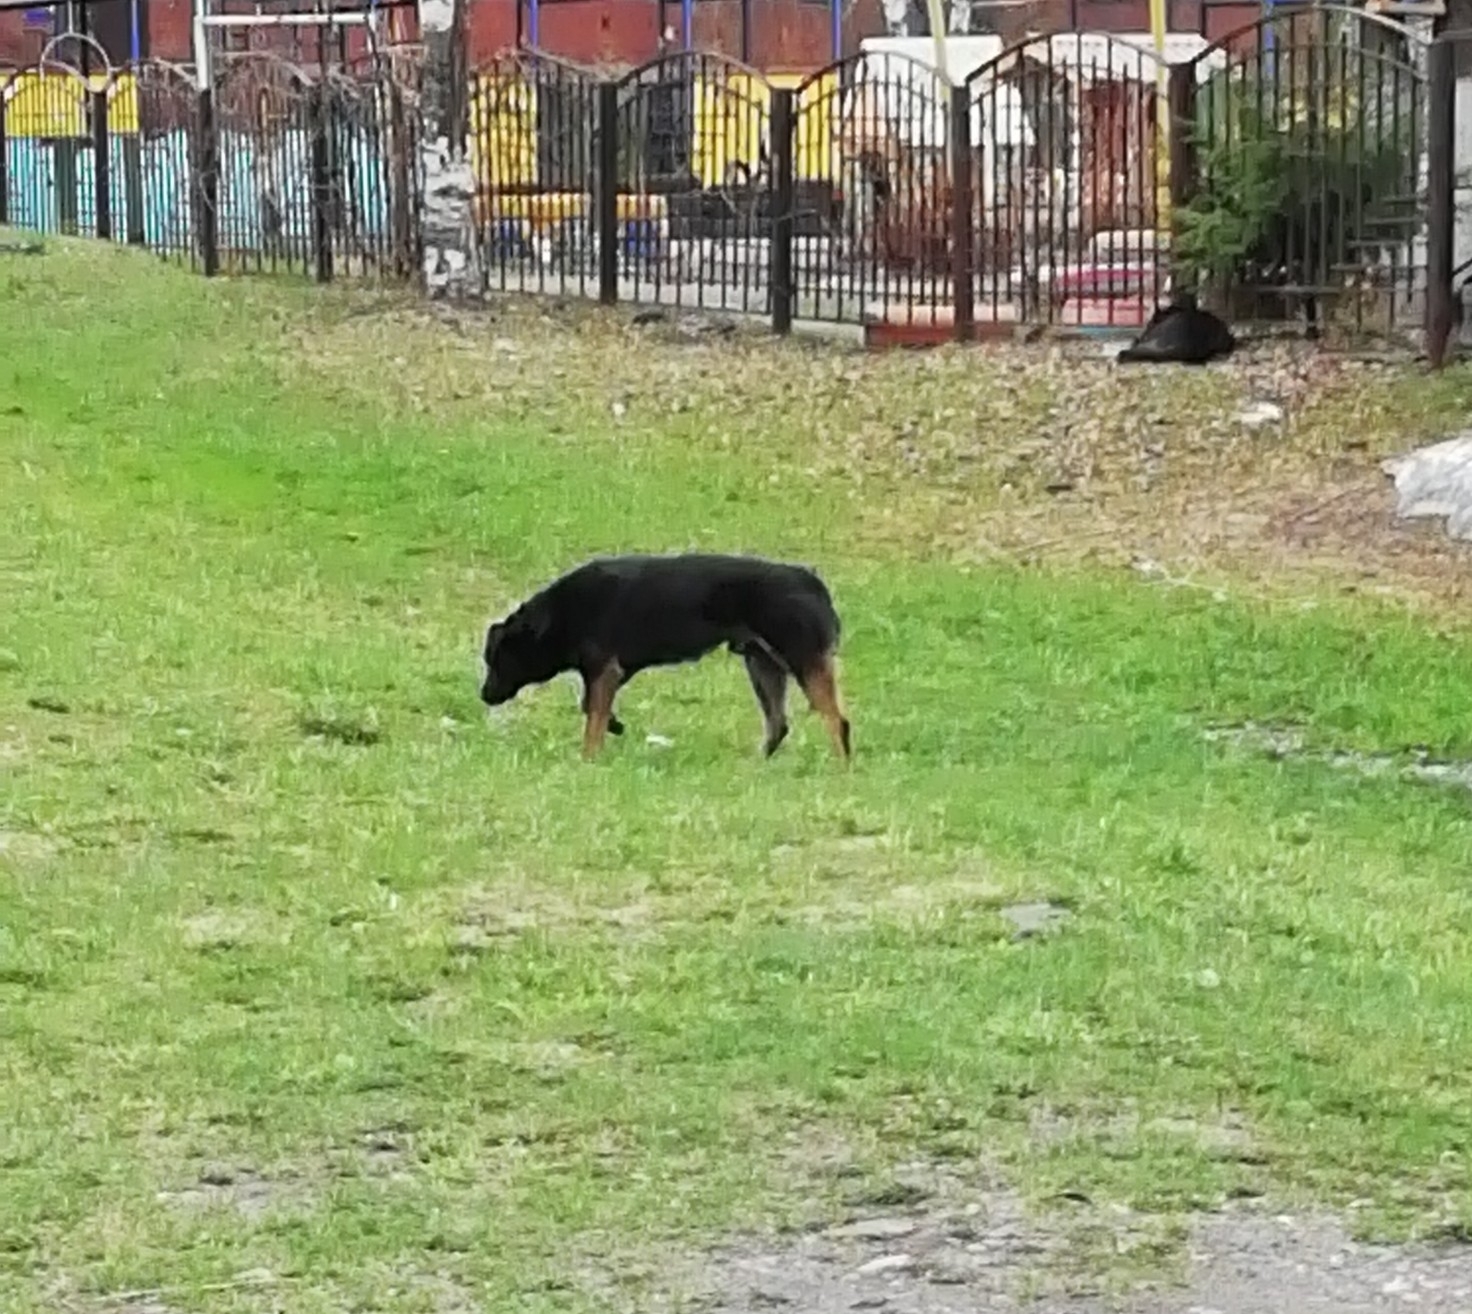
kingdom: Animalia
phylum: Chordata
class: Mammalia
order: Carnivora
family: Canidae
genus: Canis
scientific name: Canis lupus
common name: Gray wolf
